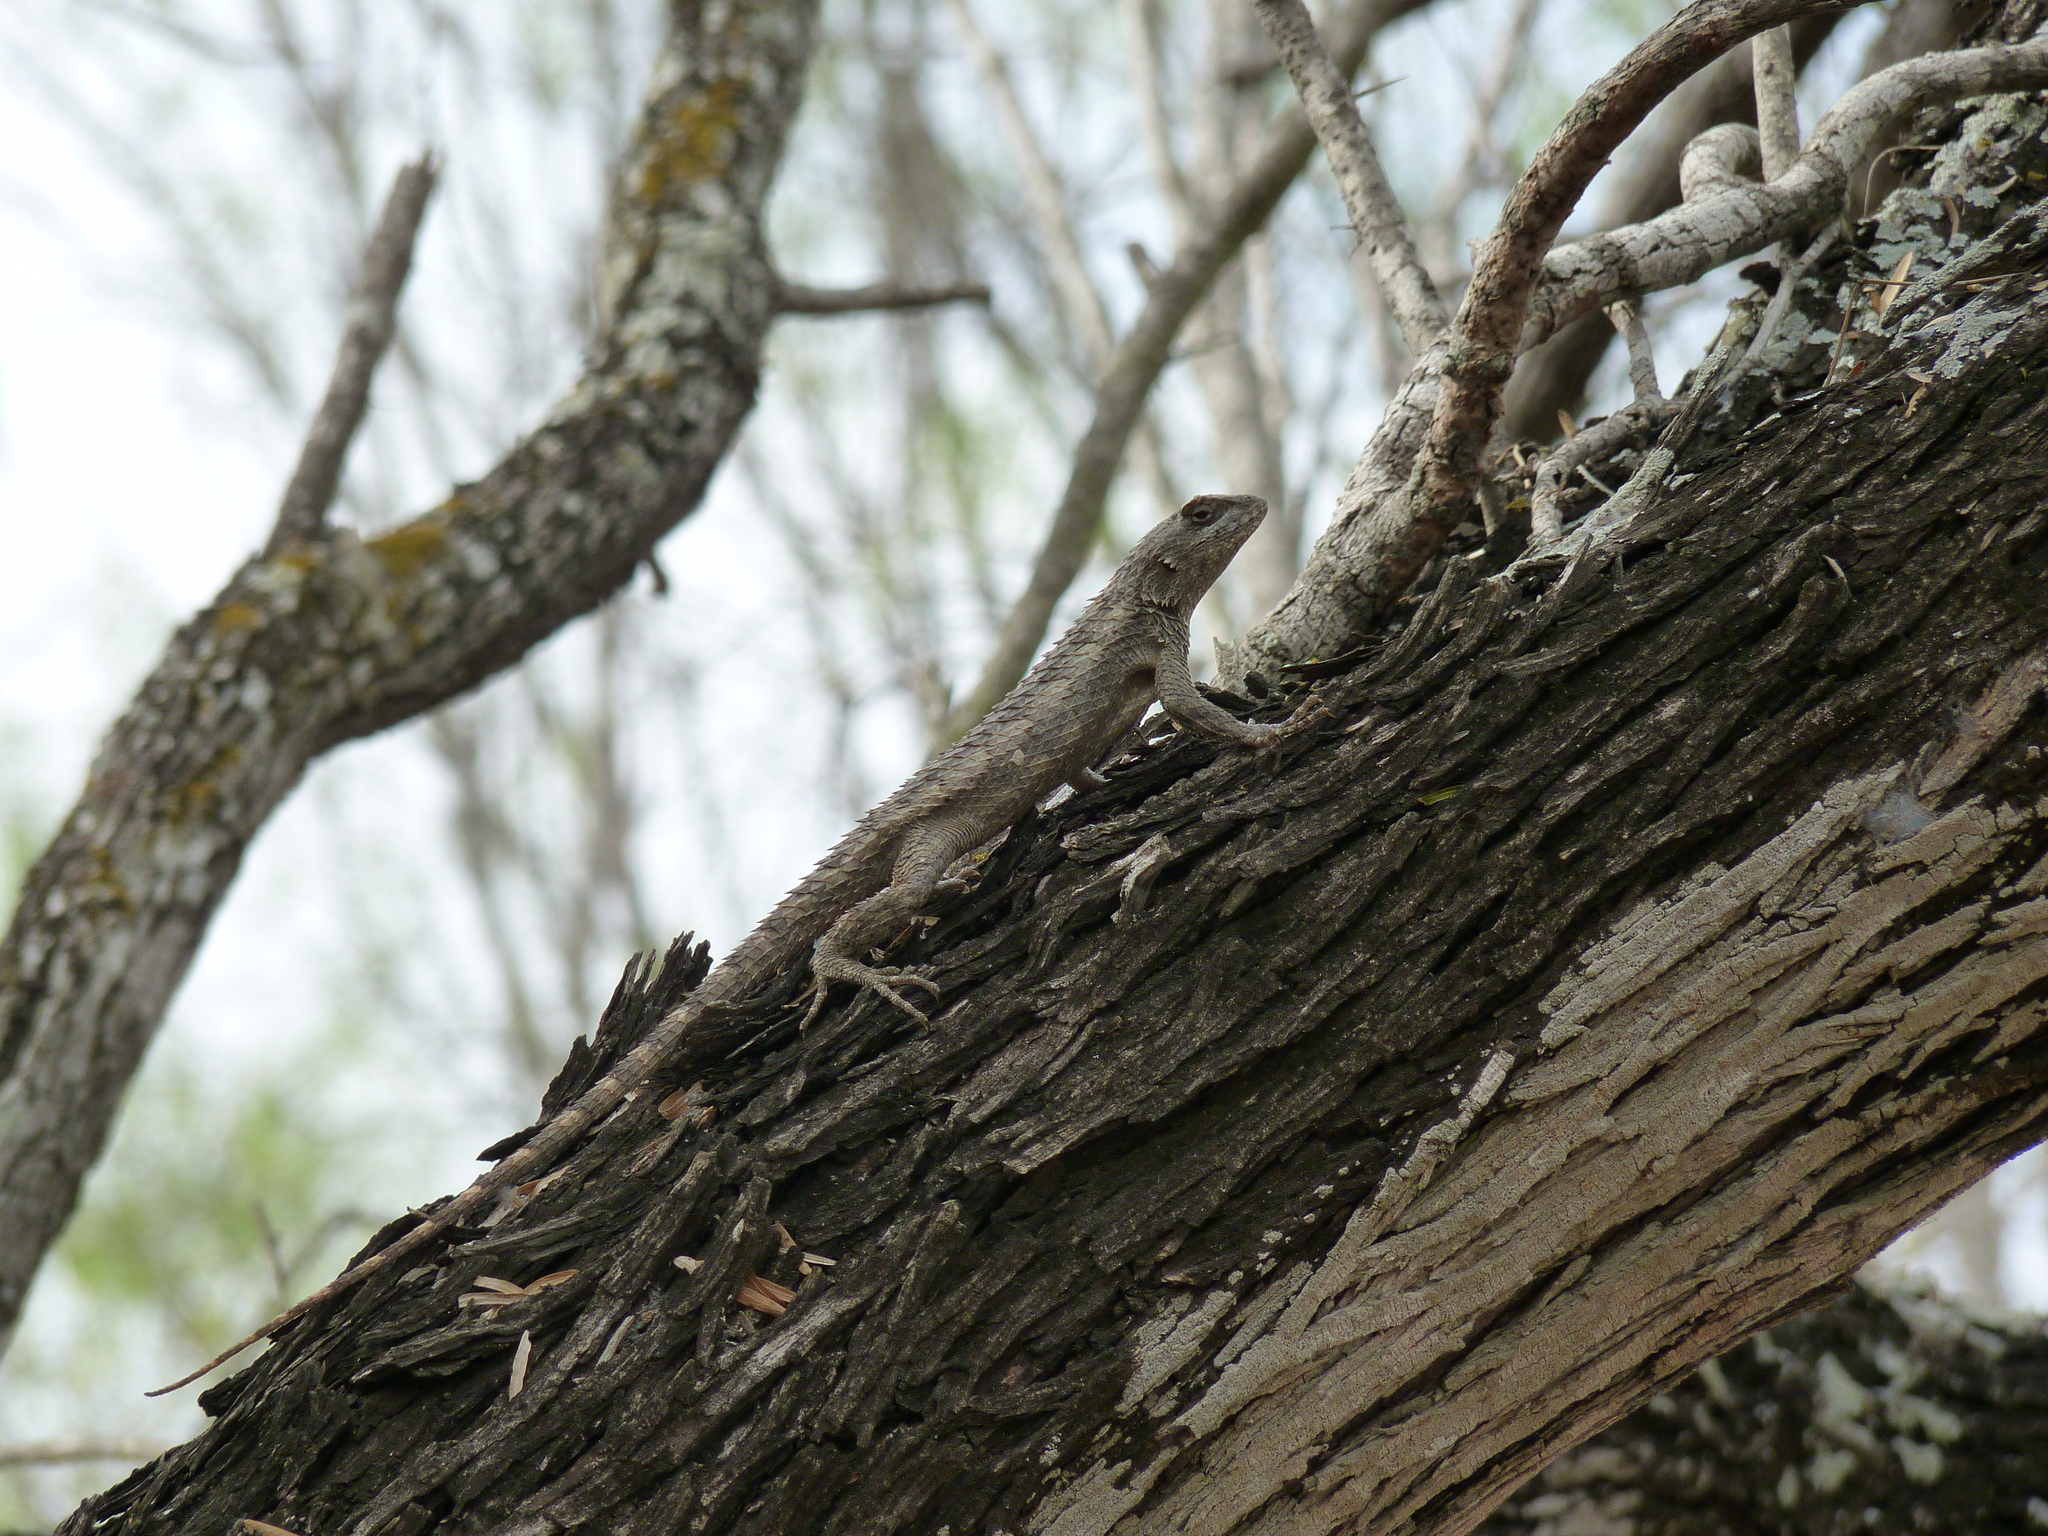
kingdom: Animalia
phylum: Chordata
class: Squamata
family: Phrynosomatidae
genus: Sceloporus
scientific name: Sceloporus olivaceus
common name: Texas spiny lizard
